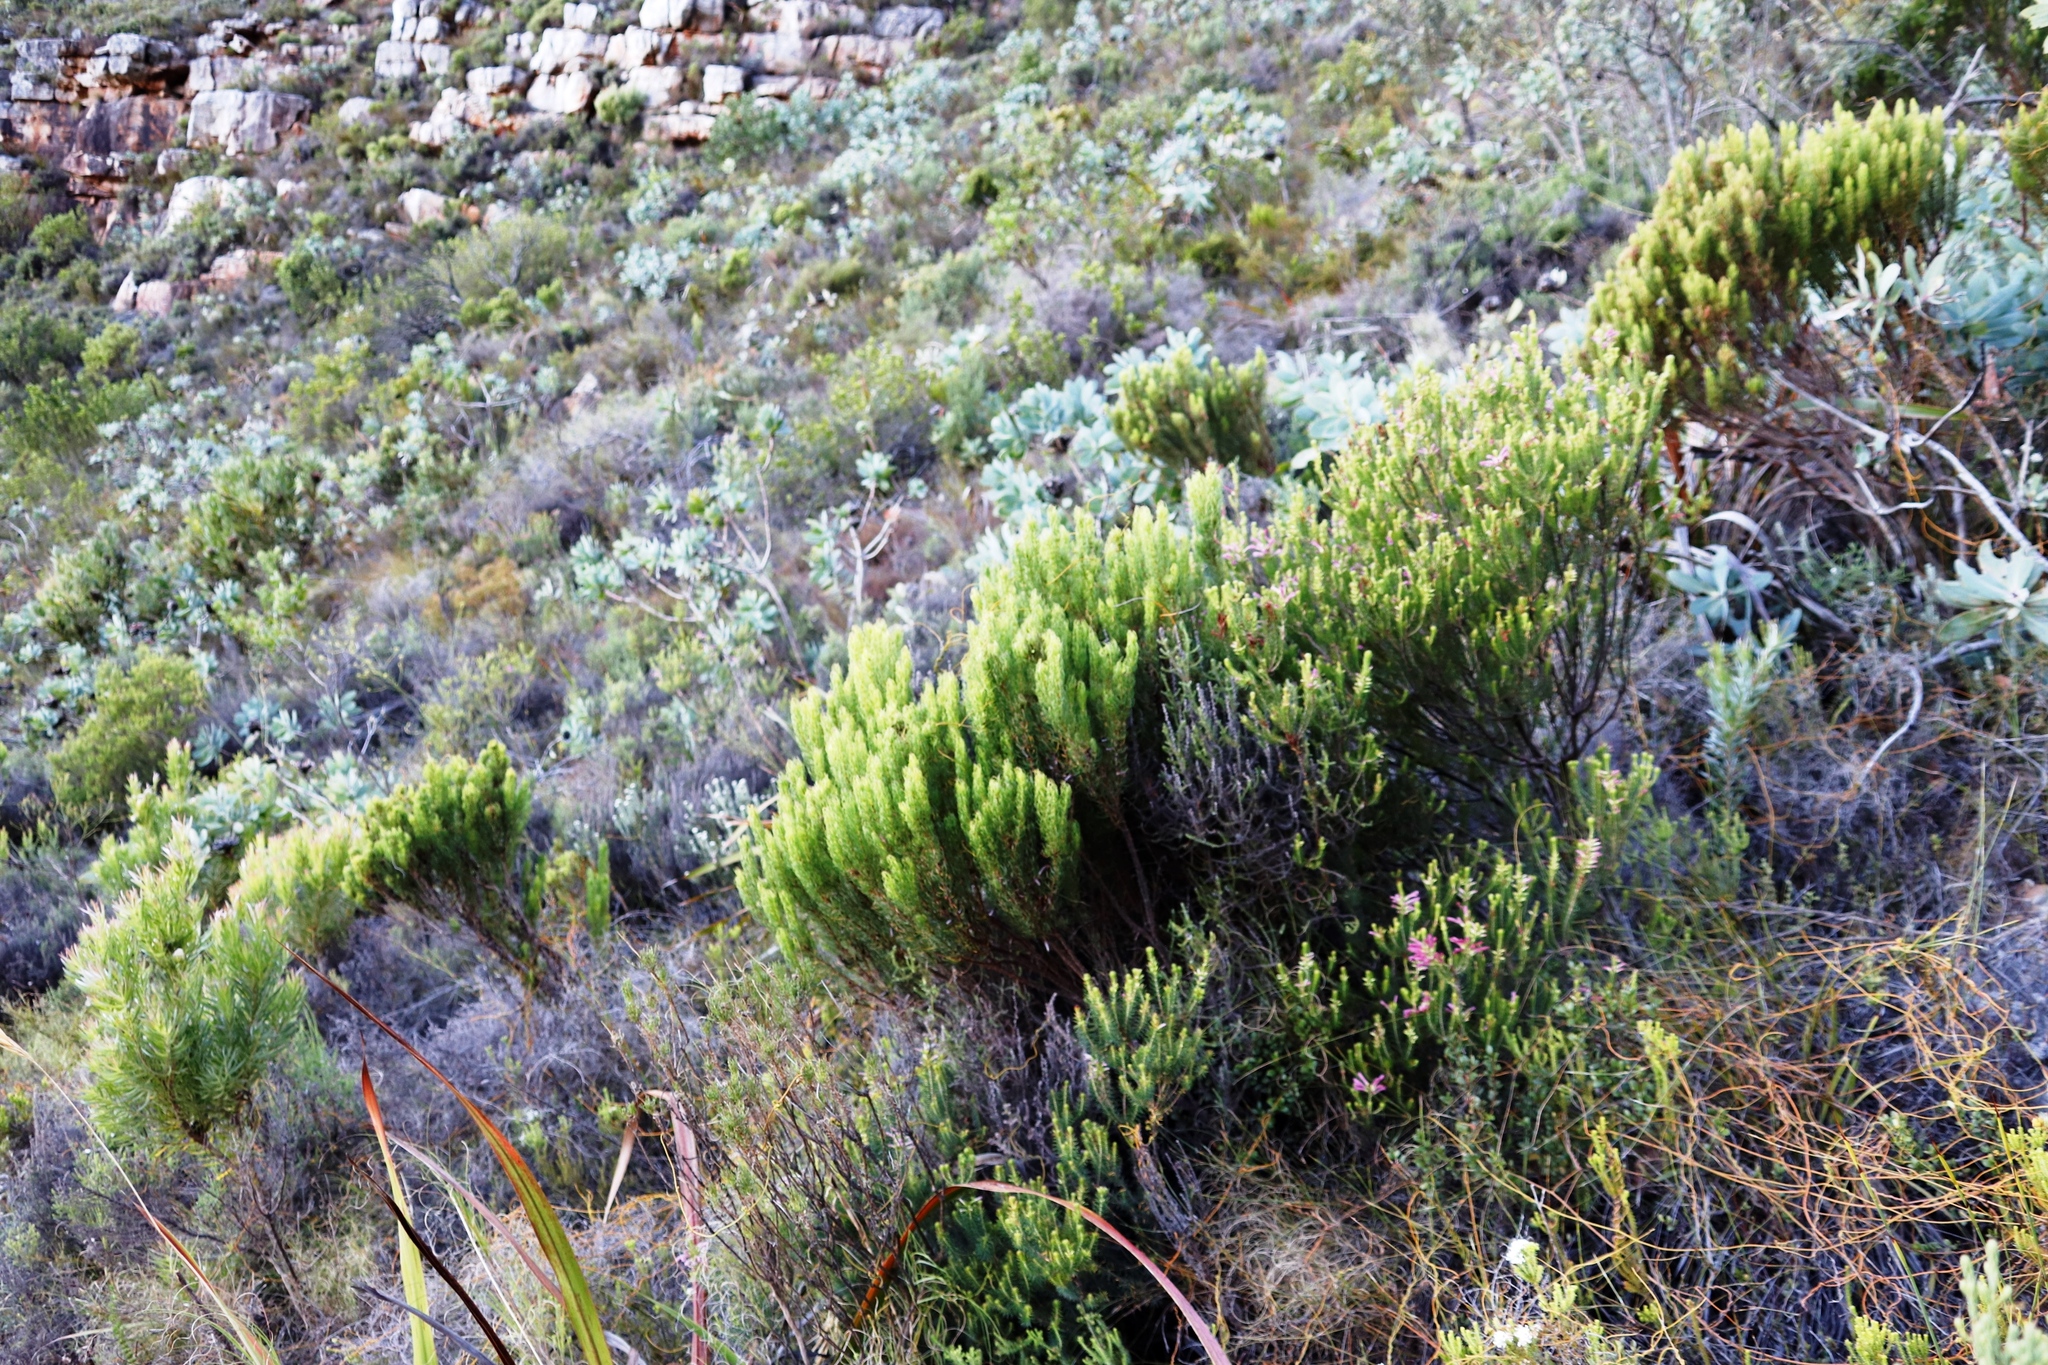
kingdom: Plantae
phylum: Tracheophyta
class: Magnoliopsida
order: Ericales
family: Ericaceae
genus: Erica
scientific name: Erica plukenetii
